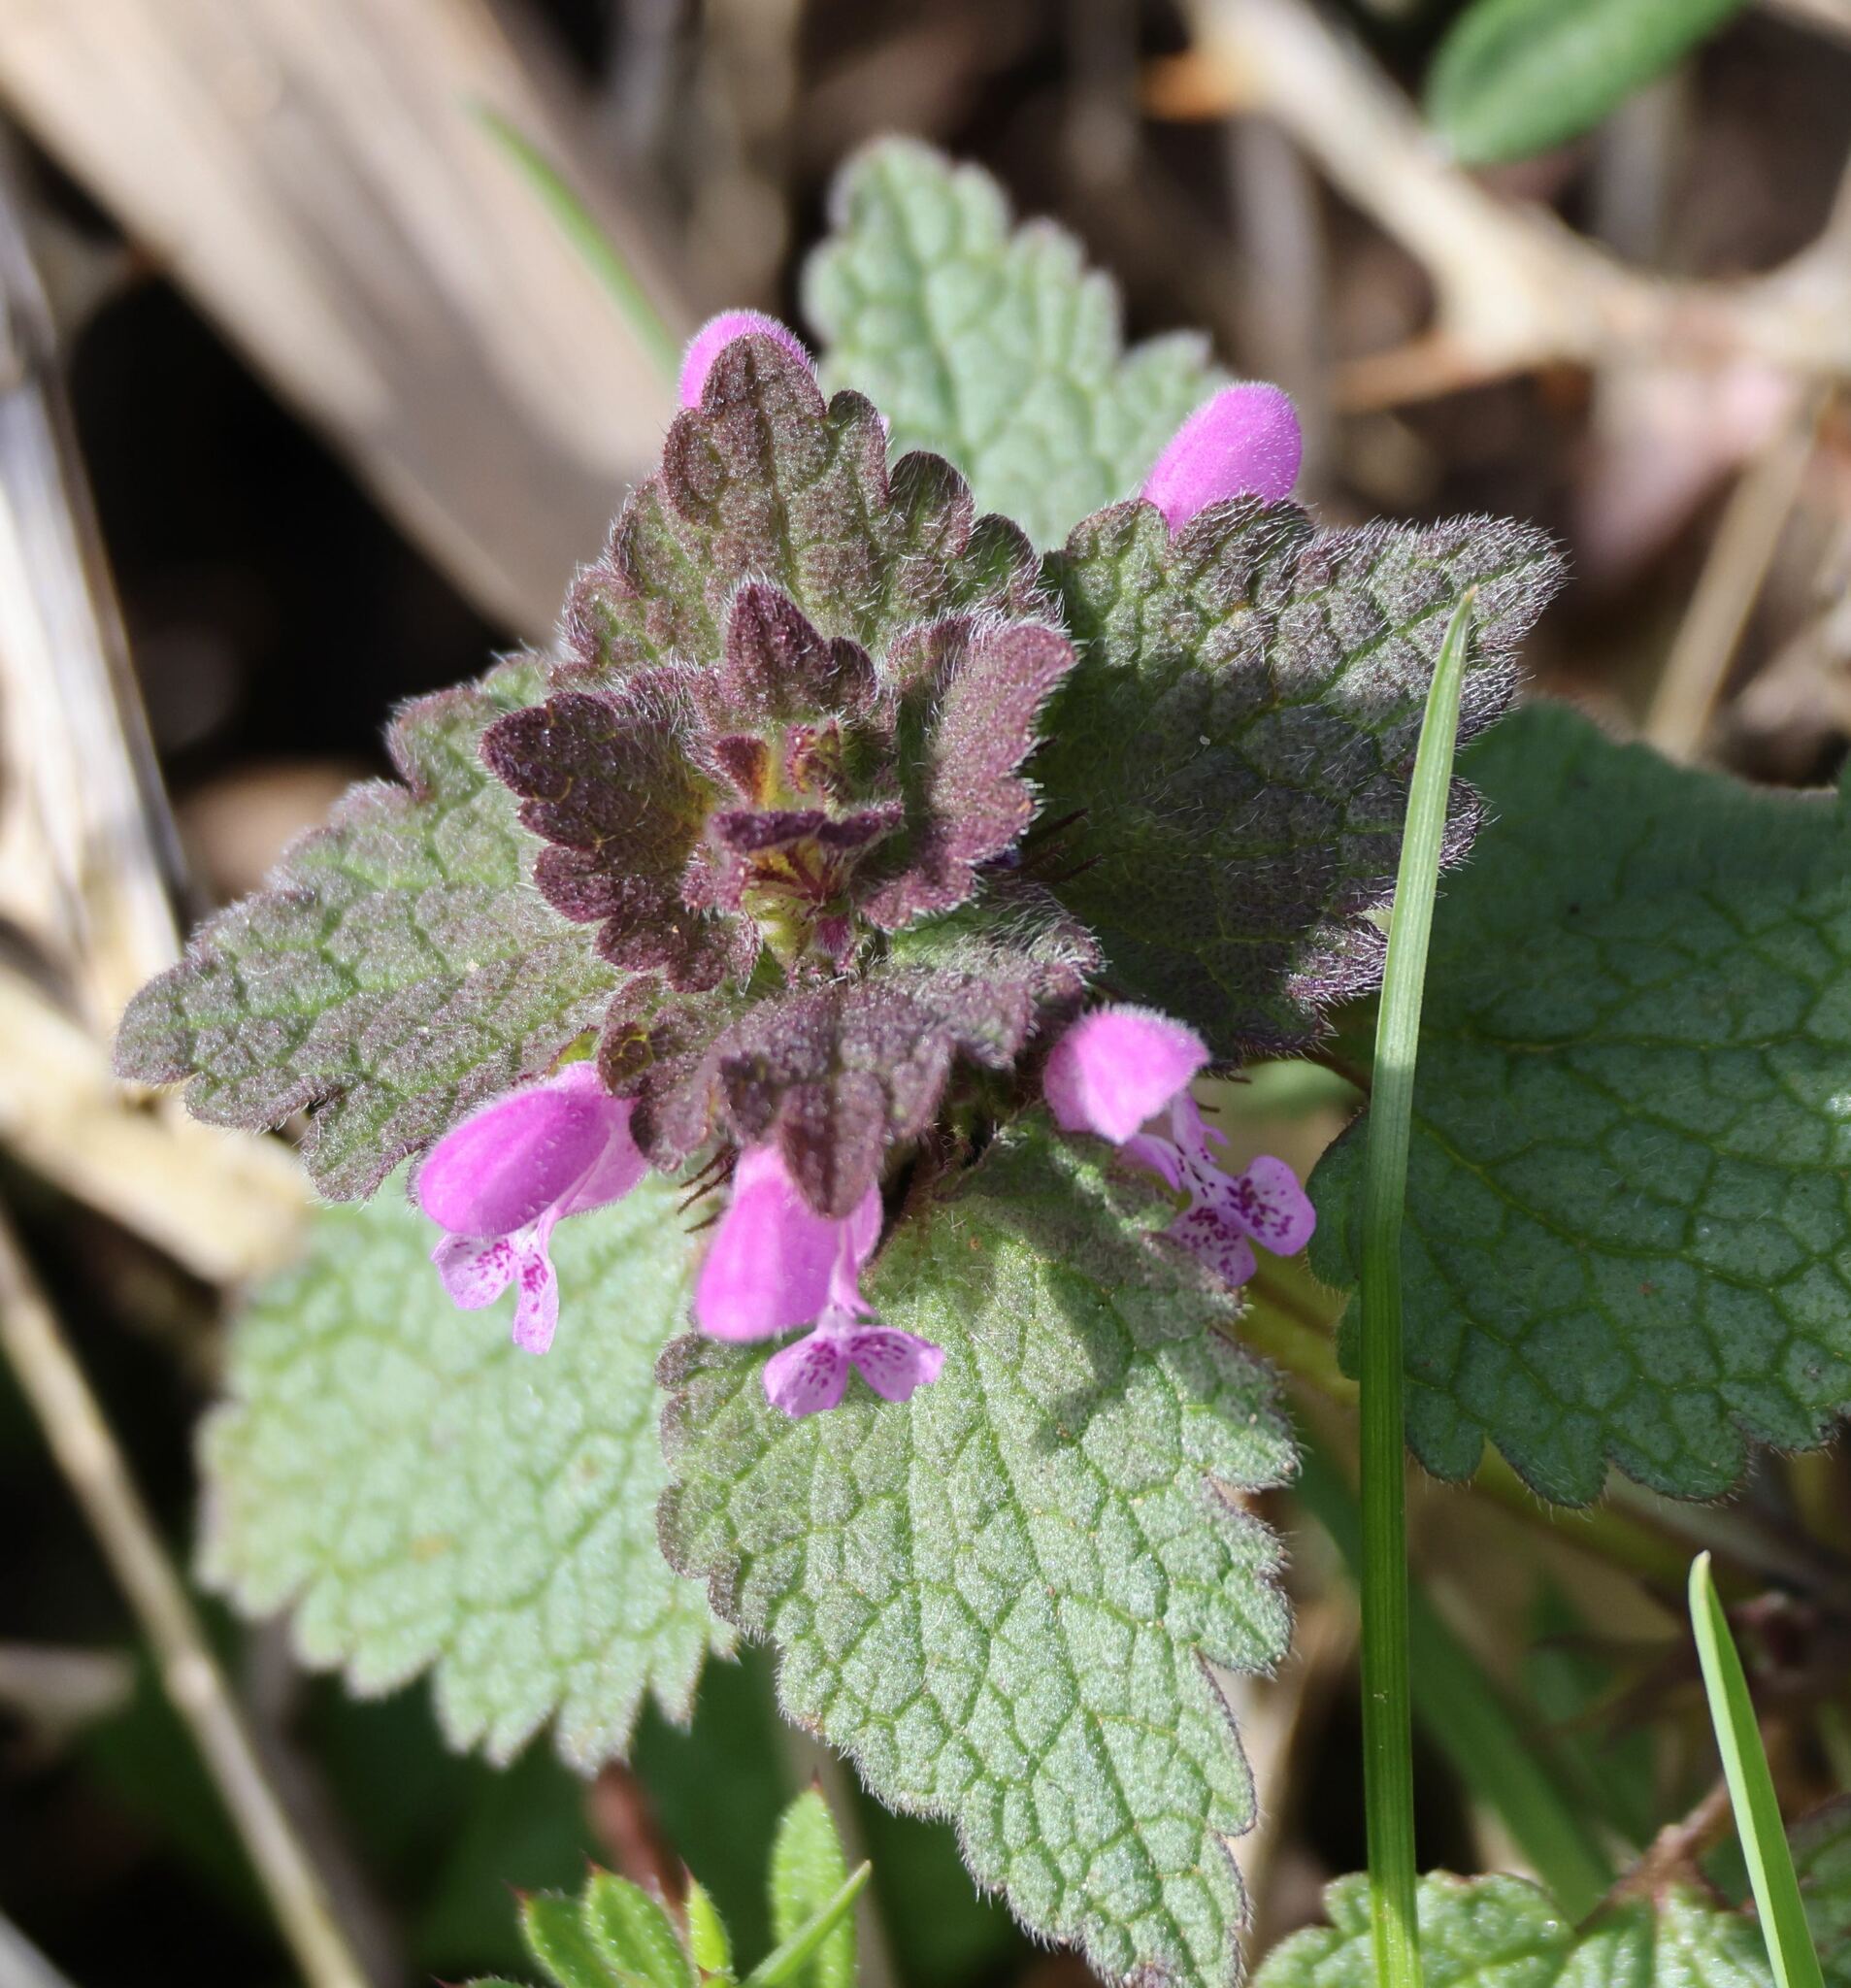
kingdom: Plantae
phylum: Tracheophyta
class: Magnoliopsida
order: Lamiales
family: Lamiaceae
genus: Lamium
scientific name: Lamium purpureum
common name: Red dead-nettle
